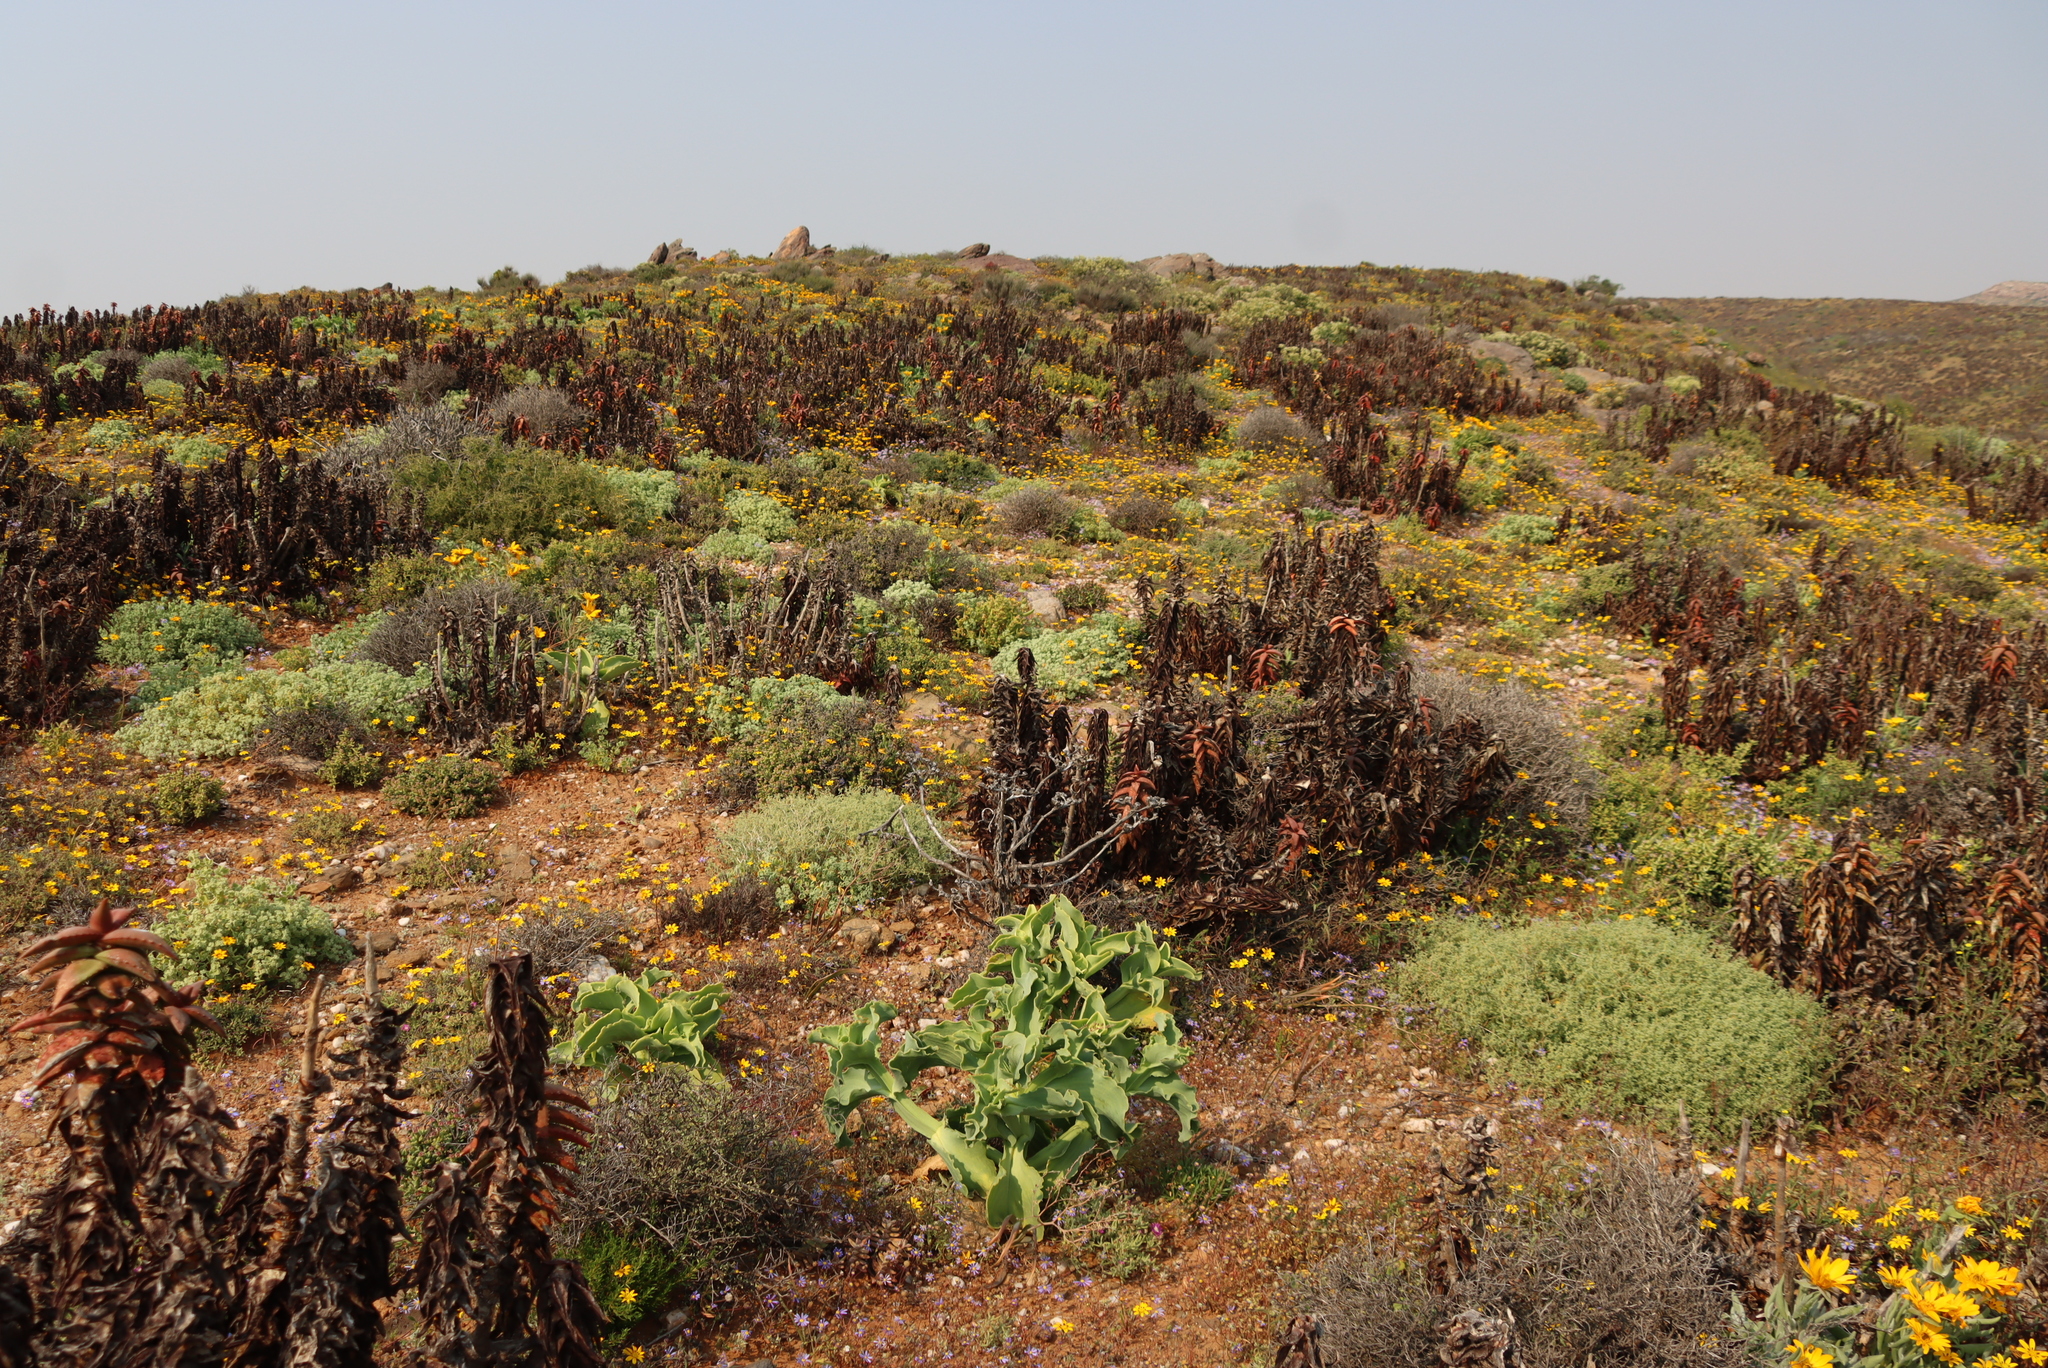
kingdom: Plantae
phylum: Tracheophyta
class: Magnoliopsida
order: Caryophyllales
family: Aizoaceae
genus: Mesembryanthemum
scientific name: Mesembryanthemum barklyi
